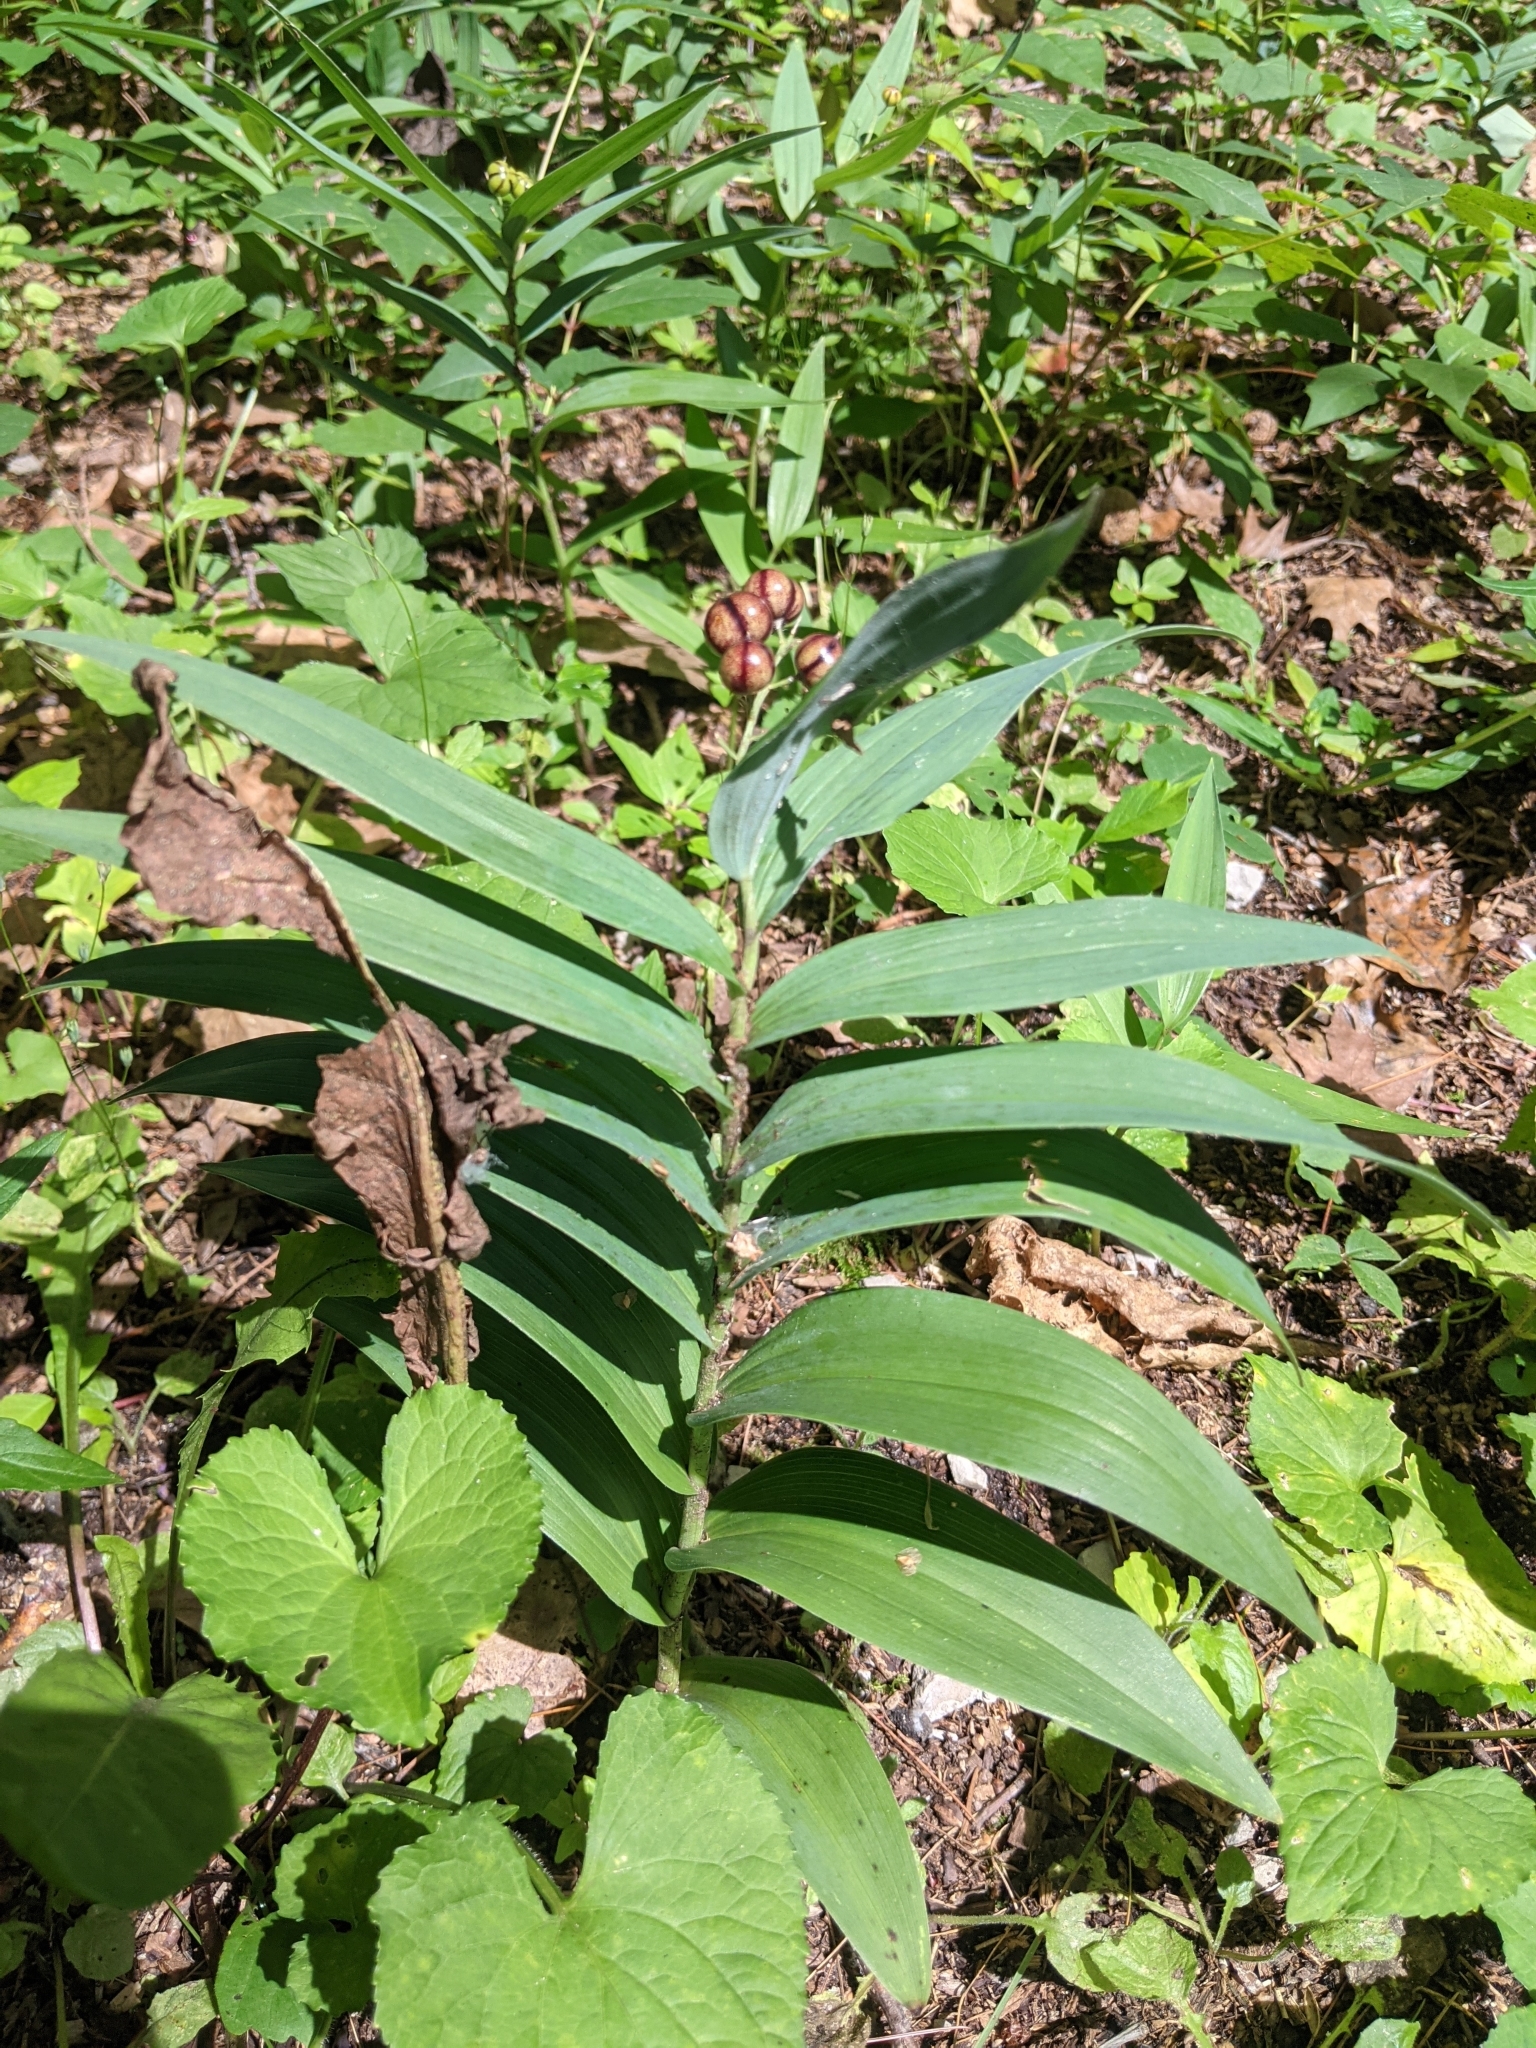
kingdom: Plantae
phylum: Tracheophyta
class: Liliopsida
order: Asparagales
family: Asparagaceae
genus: Maianthemum
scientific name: Maianthemum stellatum
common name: Little false solomon's seal
